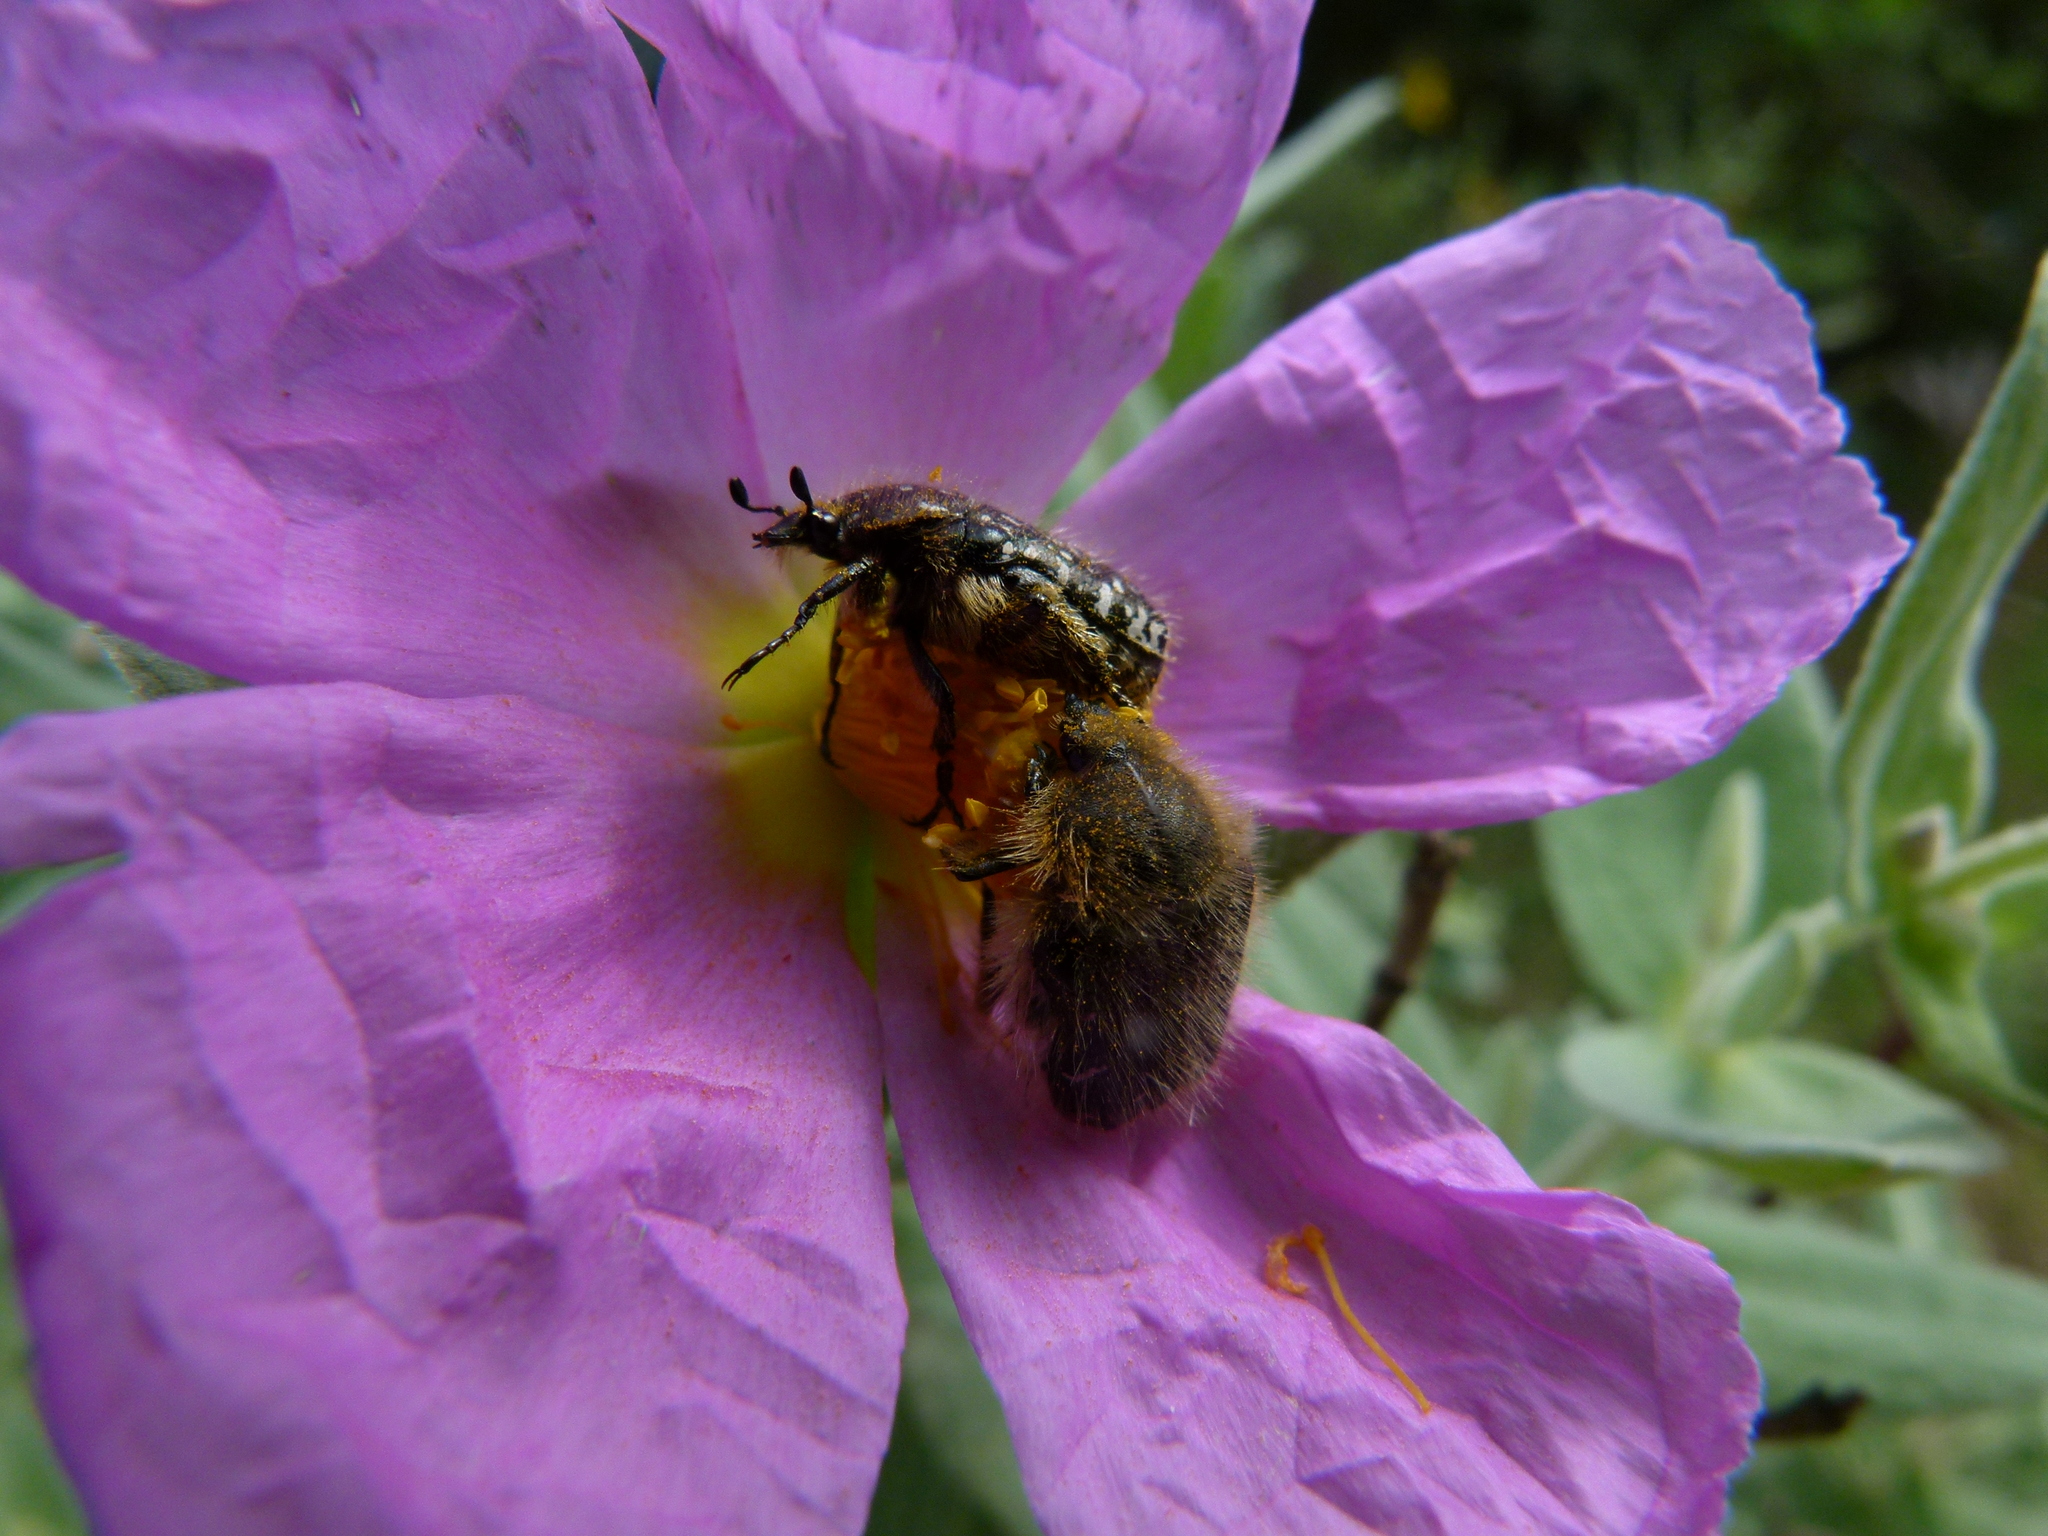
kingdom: Animalia
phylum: Arthropoda
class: Insecta
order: Coleoptera
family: Scarabaeidae
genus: Oxythyrea
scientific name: Oxythyrea funesta
